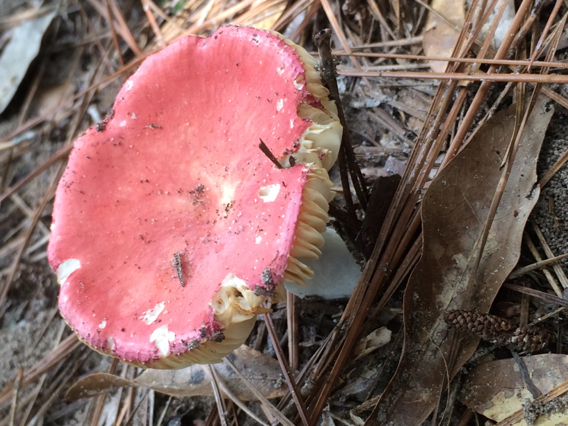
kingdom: Fungi
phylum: Basidiomycota
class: Agaricomycetes
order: Russulales
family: Russulaceae
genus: Russula
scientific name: Russula
